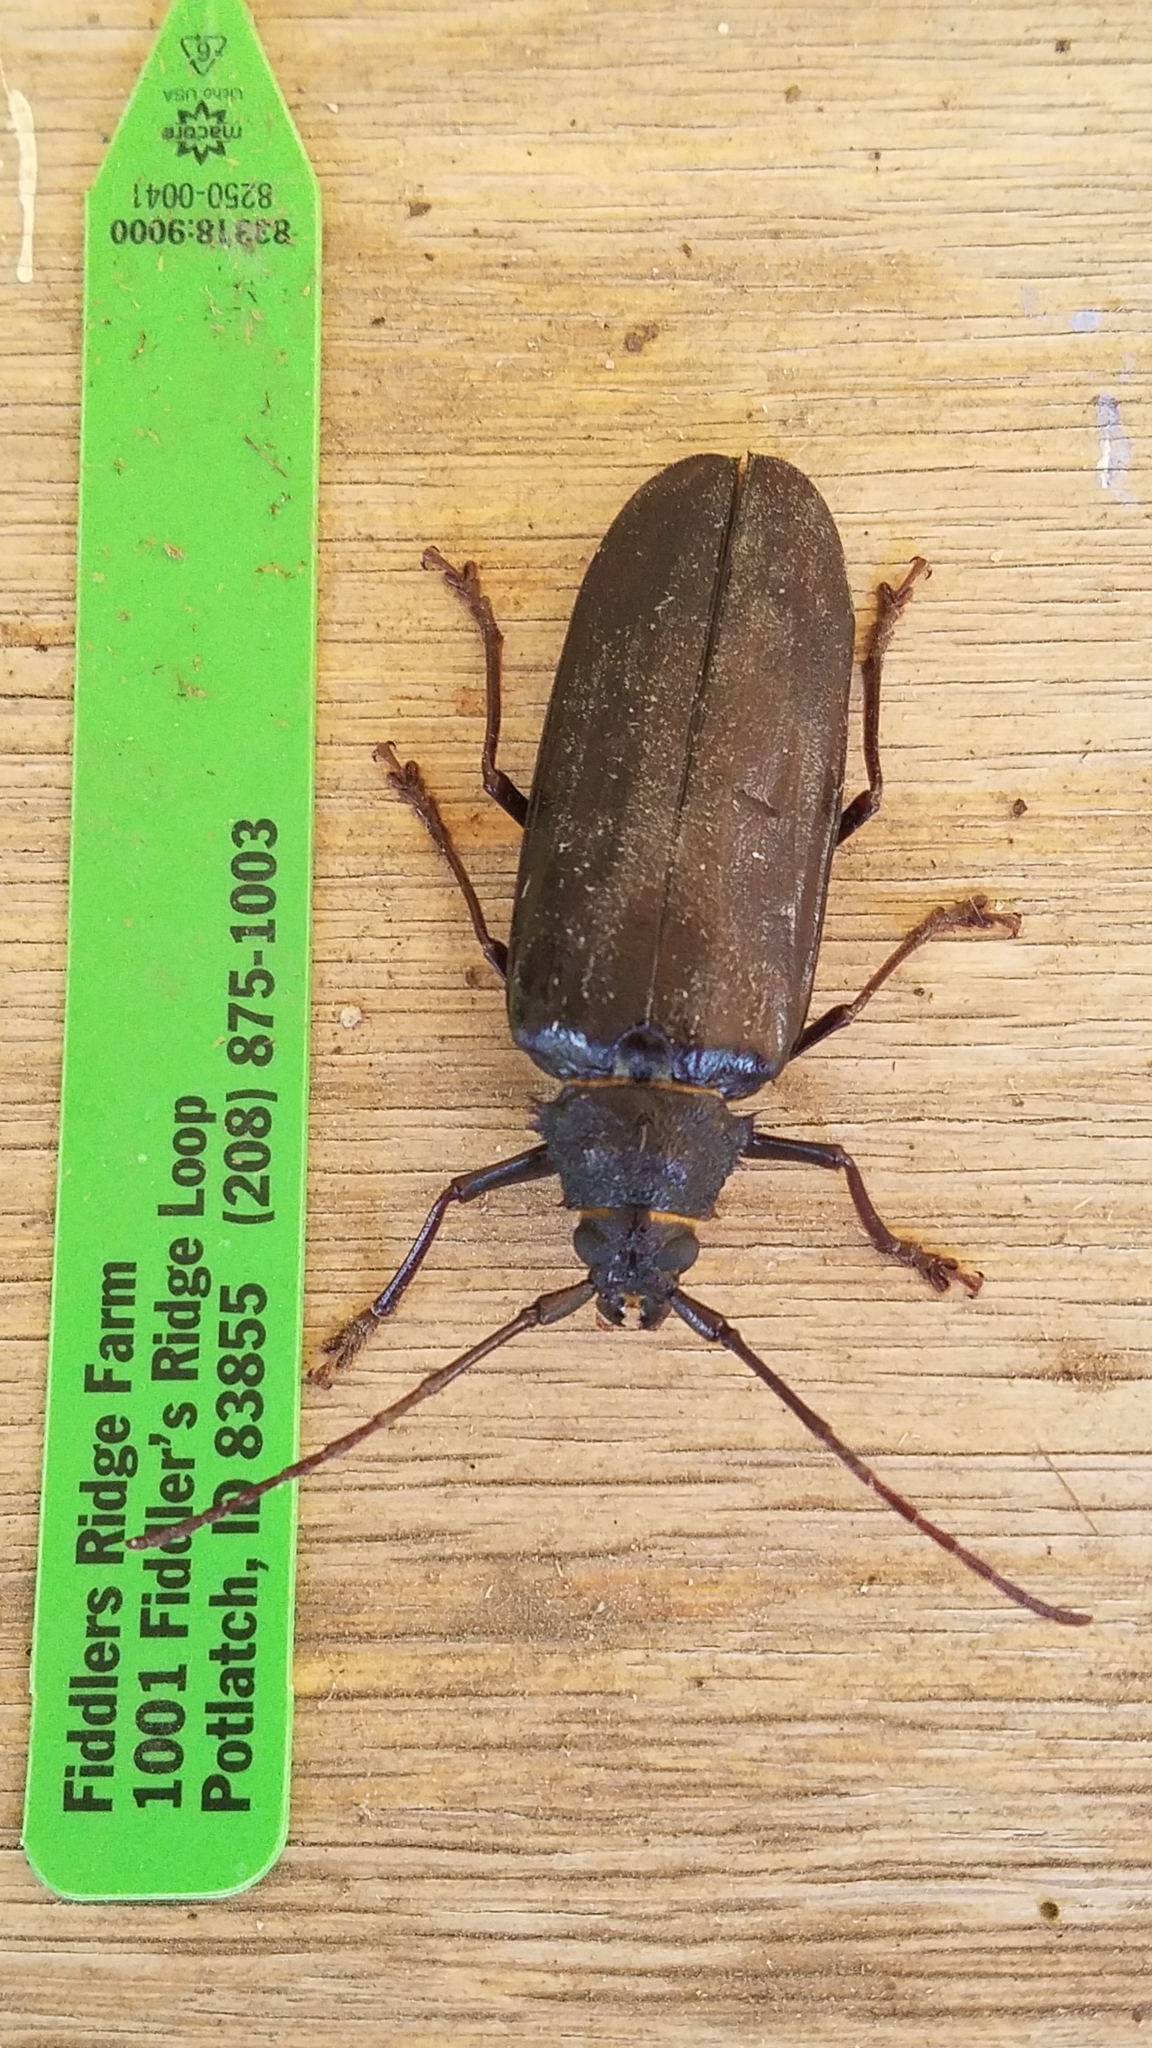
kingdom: Animalia
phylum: Arthropoda
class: Insecta
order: Coleoptera
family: Cerambycidae
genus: Trichocnemis
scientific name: Trichocnemis spiculatus
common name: Long-horned beetle
